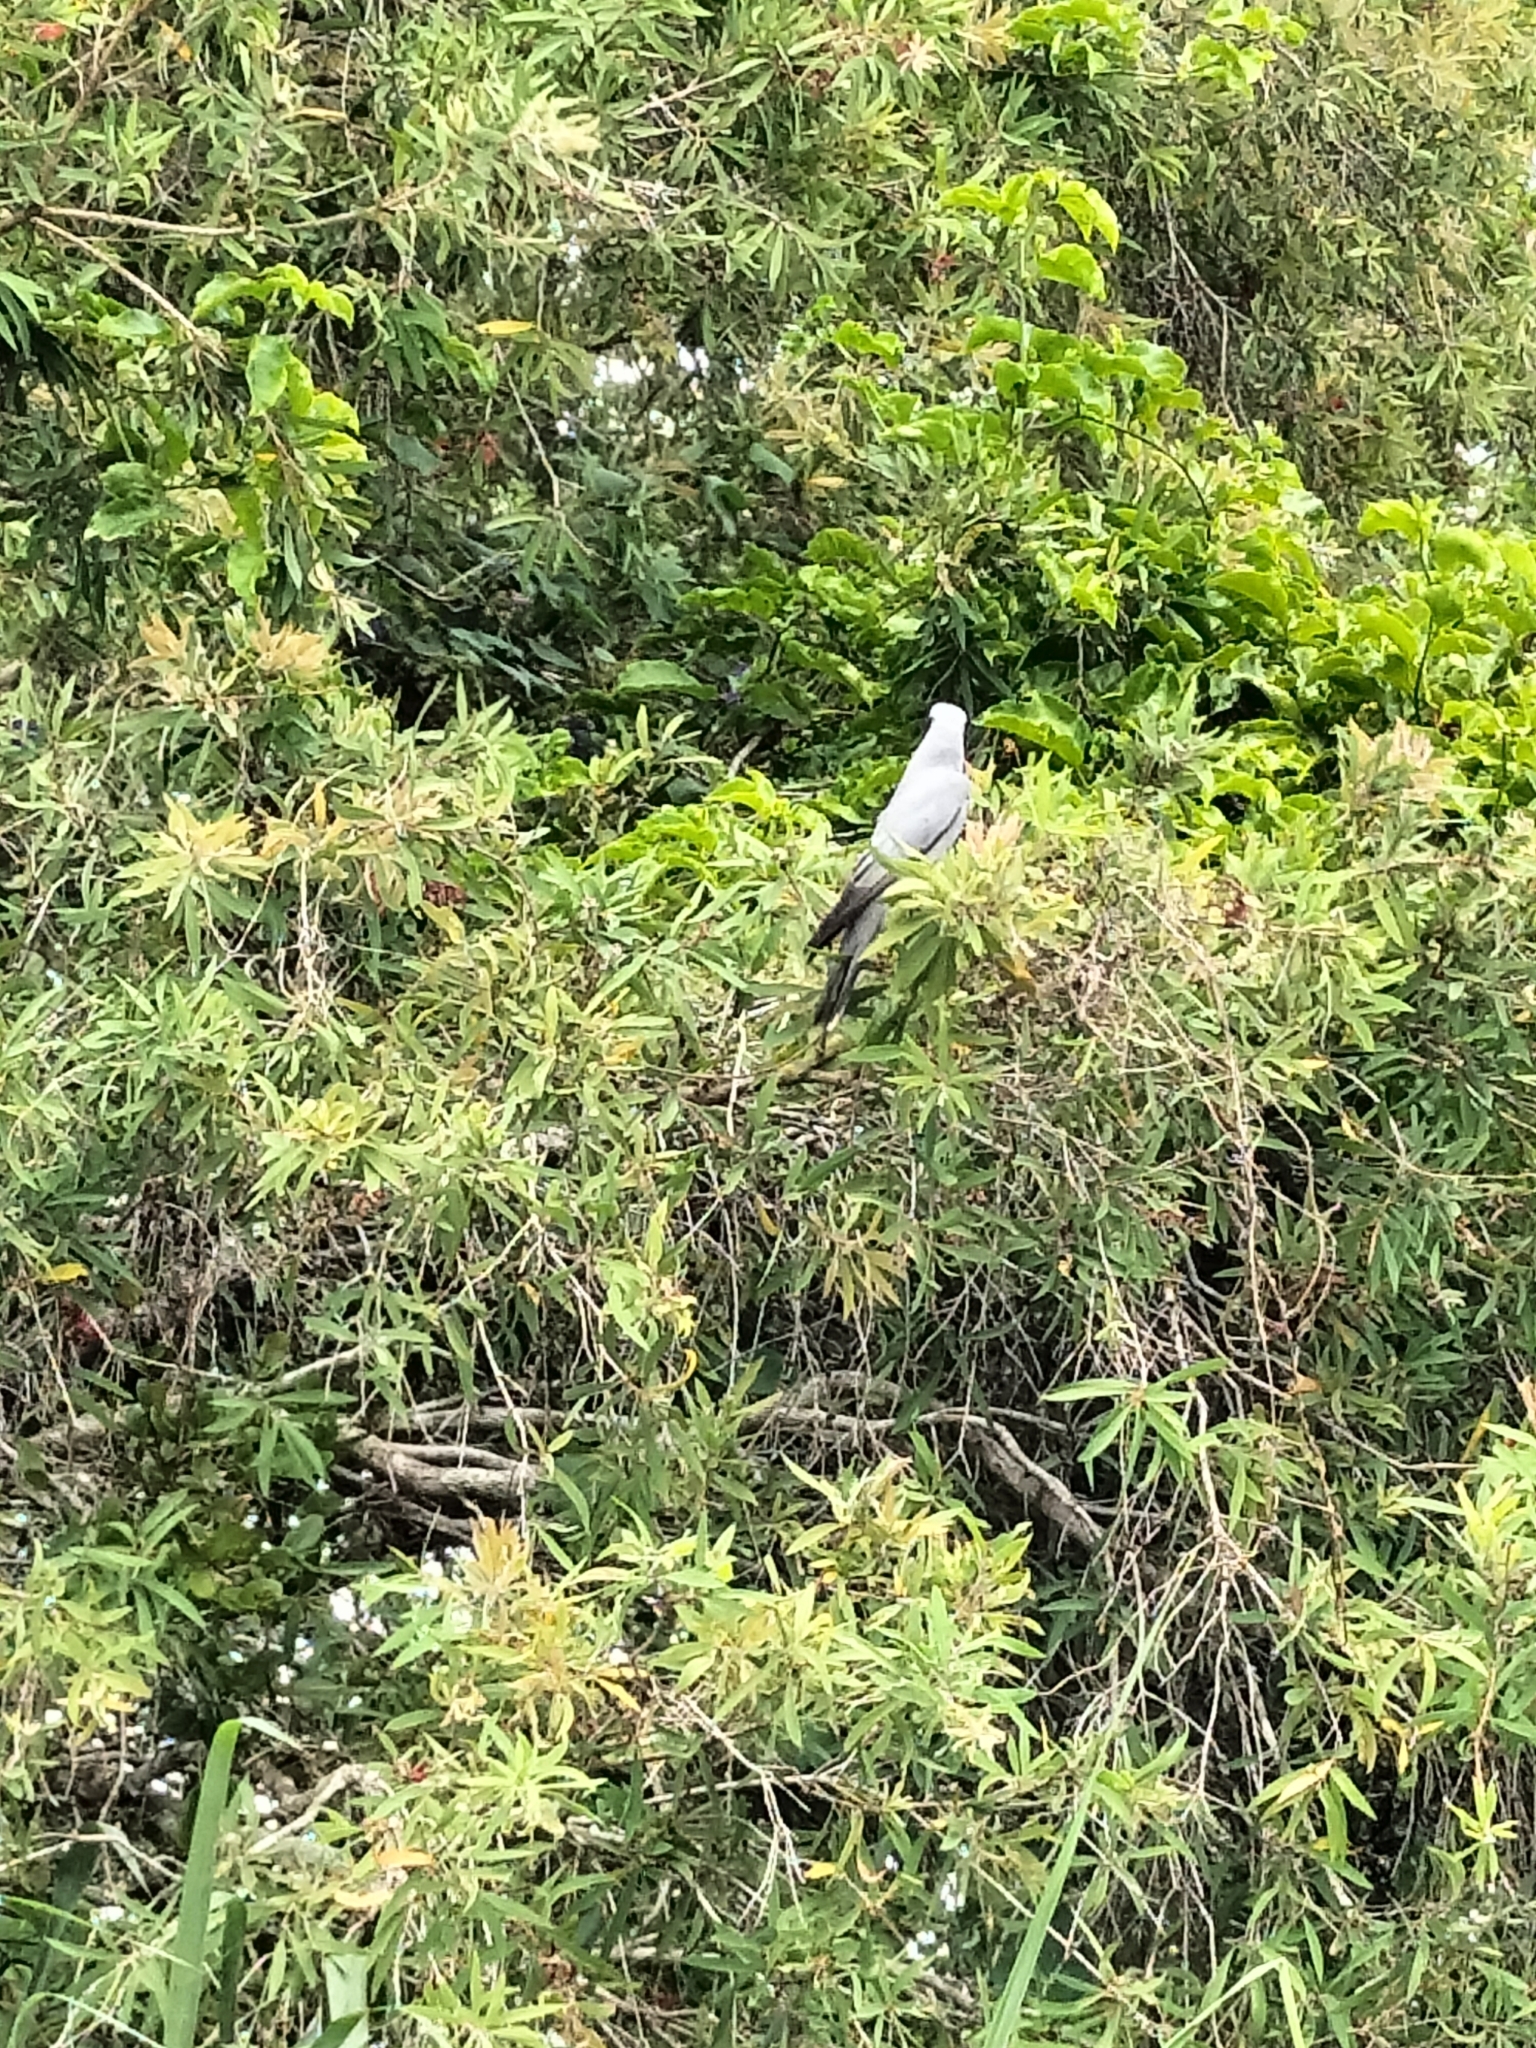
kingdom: Animalia
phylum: Chordata
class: Aves
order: Passeriformes
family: Campephagidae
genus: Coracina
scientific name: Coracina novaehollandiae
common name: Black-faced cuckooshrike
